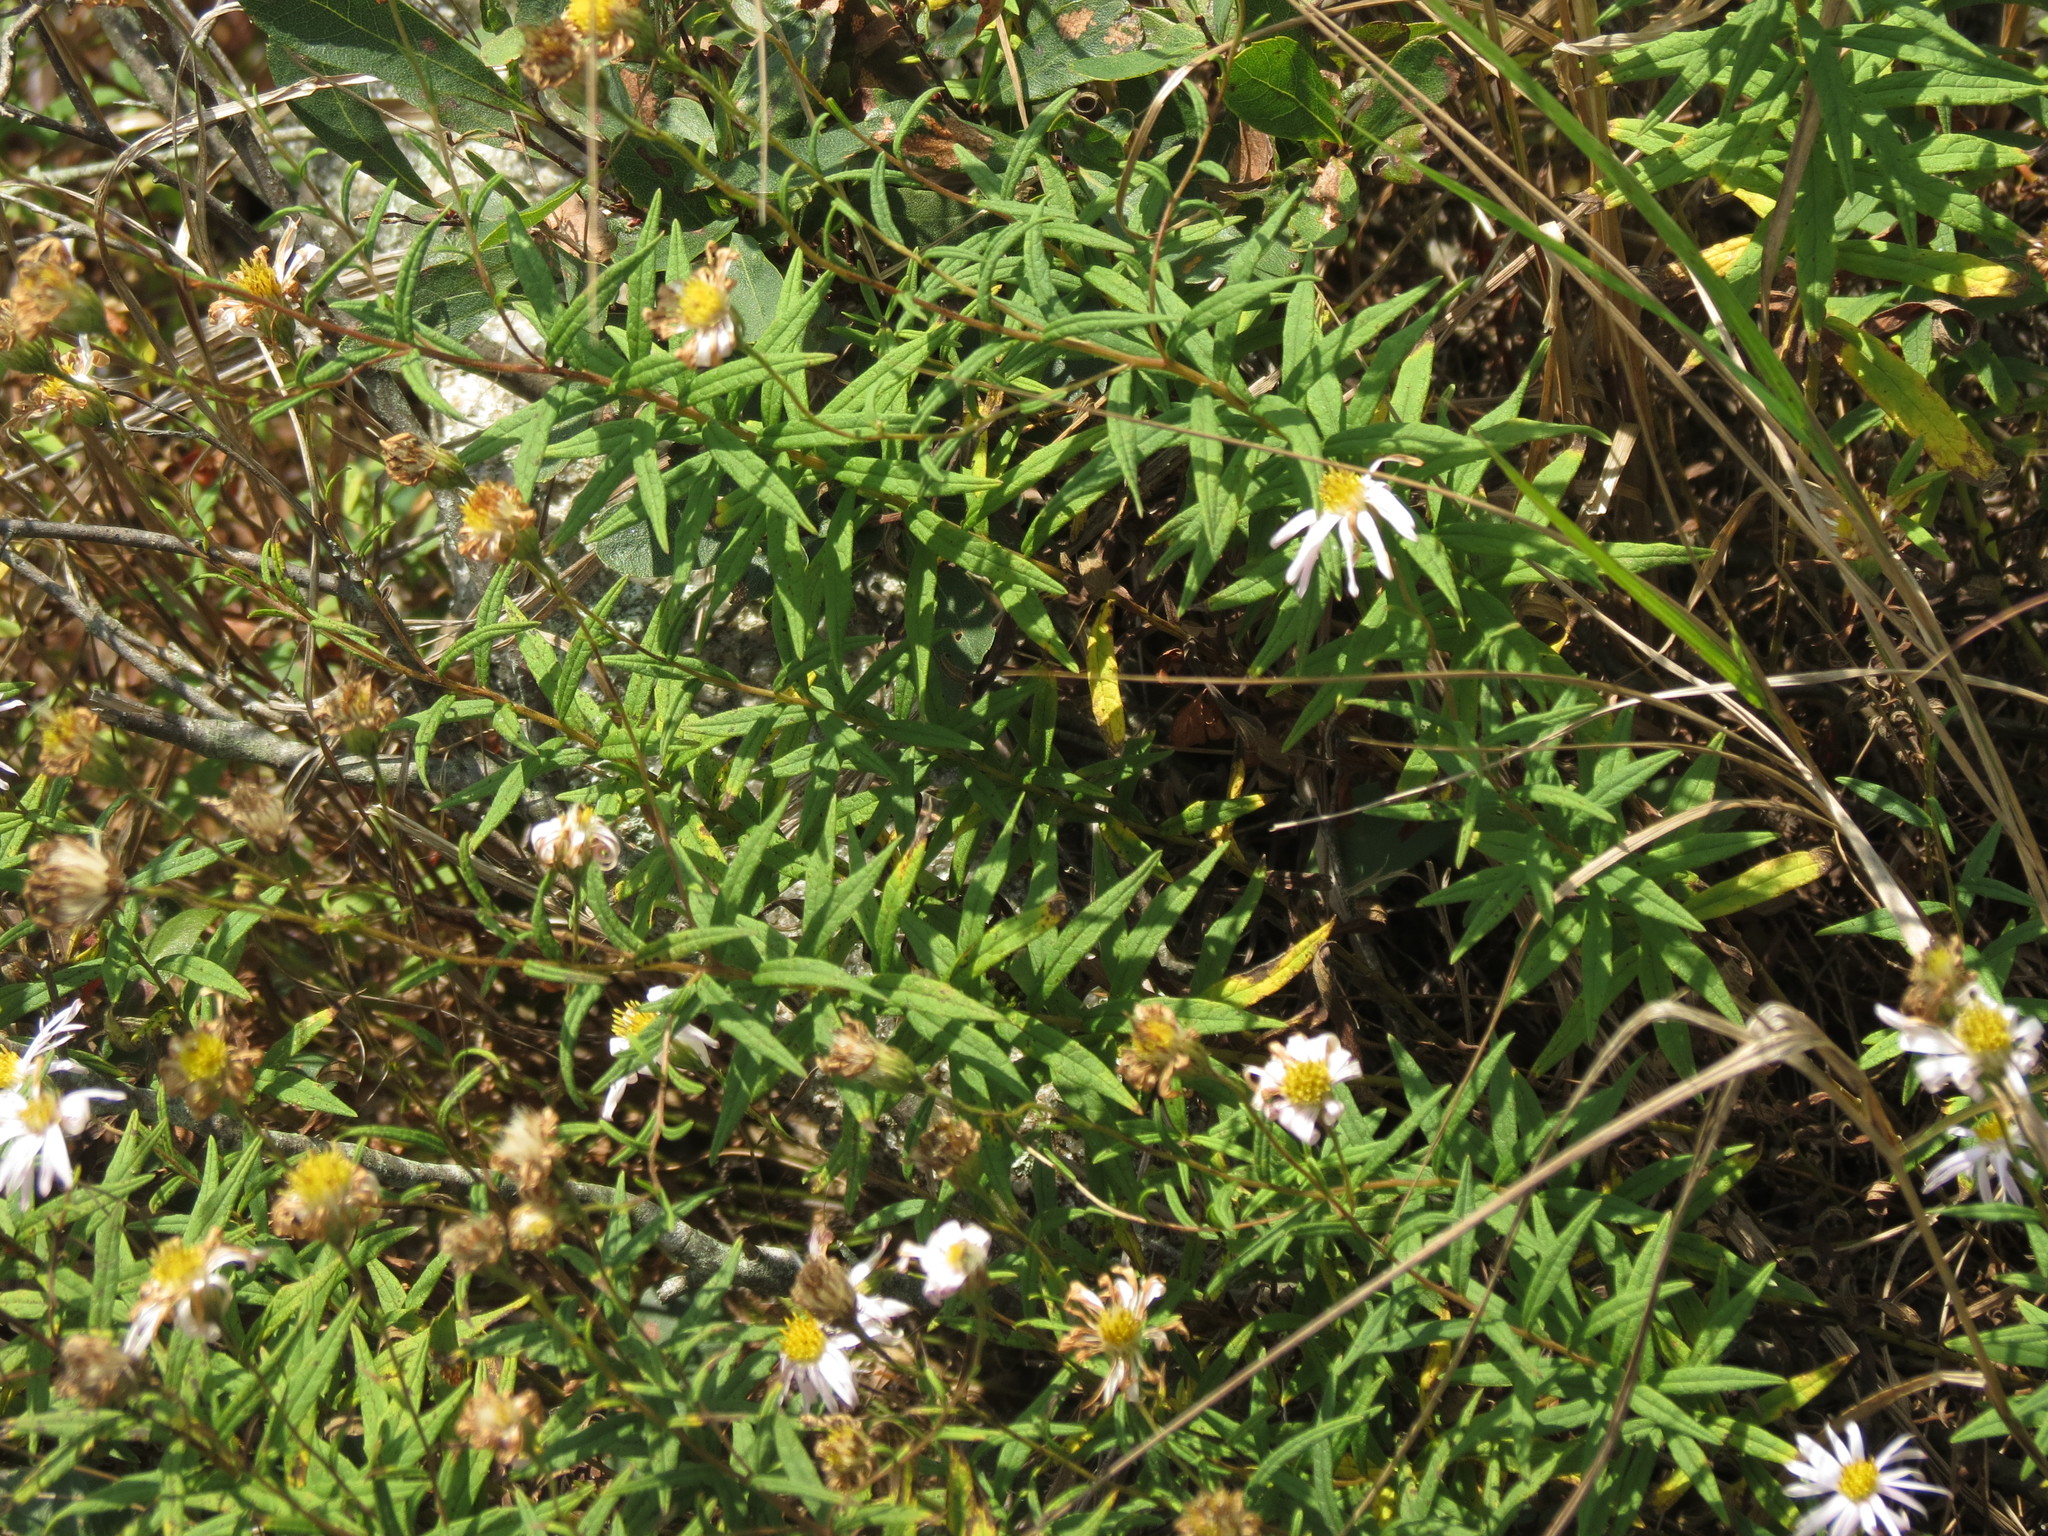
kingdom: Plantae
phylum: Tracheophyta
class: Magnoliopsida
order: Asterales
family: Asteraceae
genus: Oclemena
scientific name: Oclemena nemoralis
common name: Bog aster
